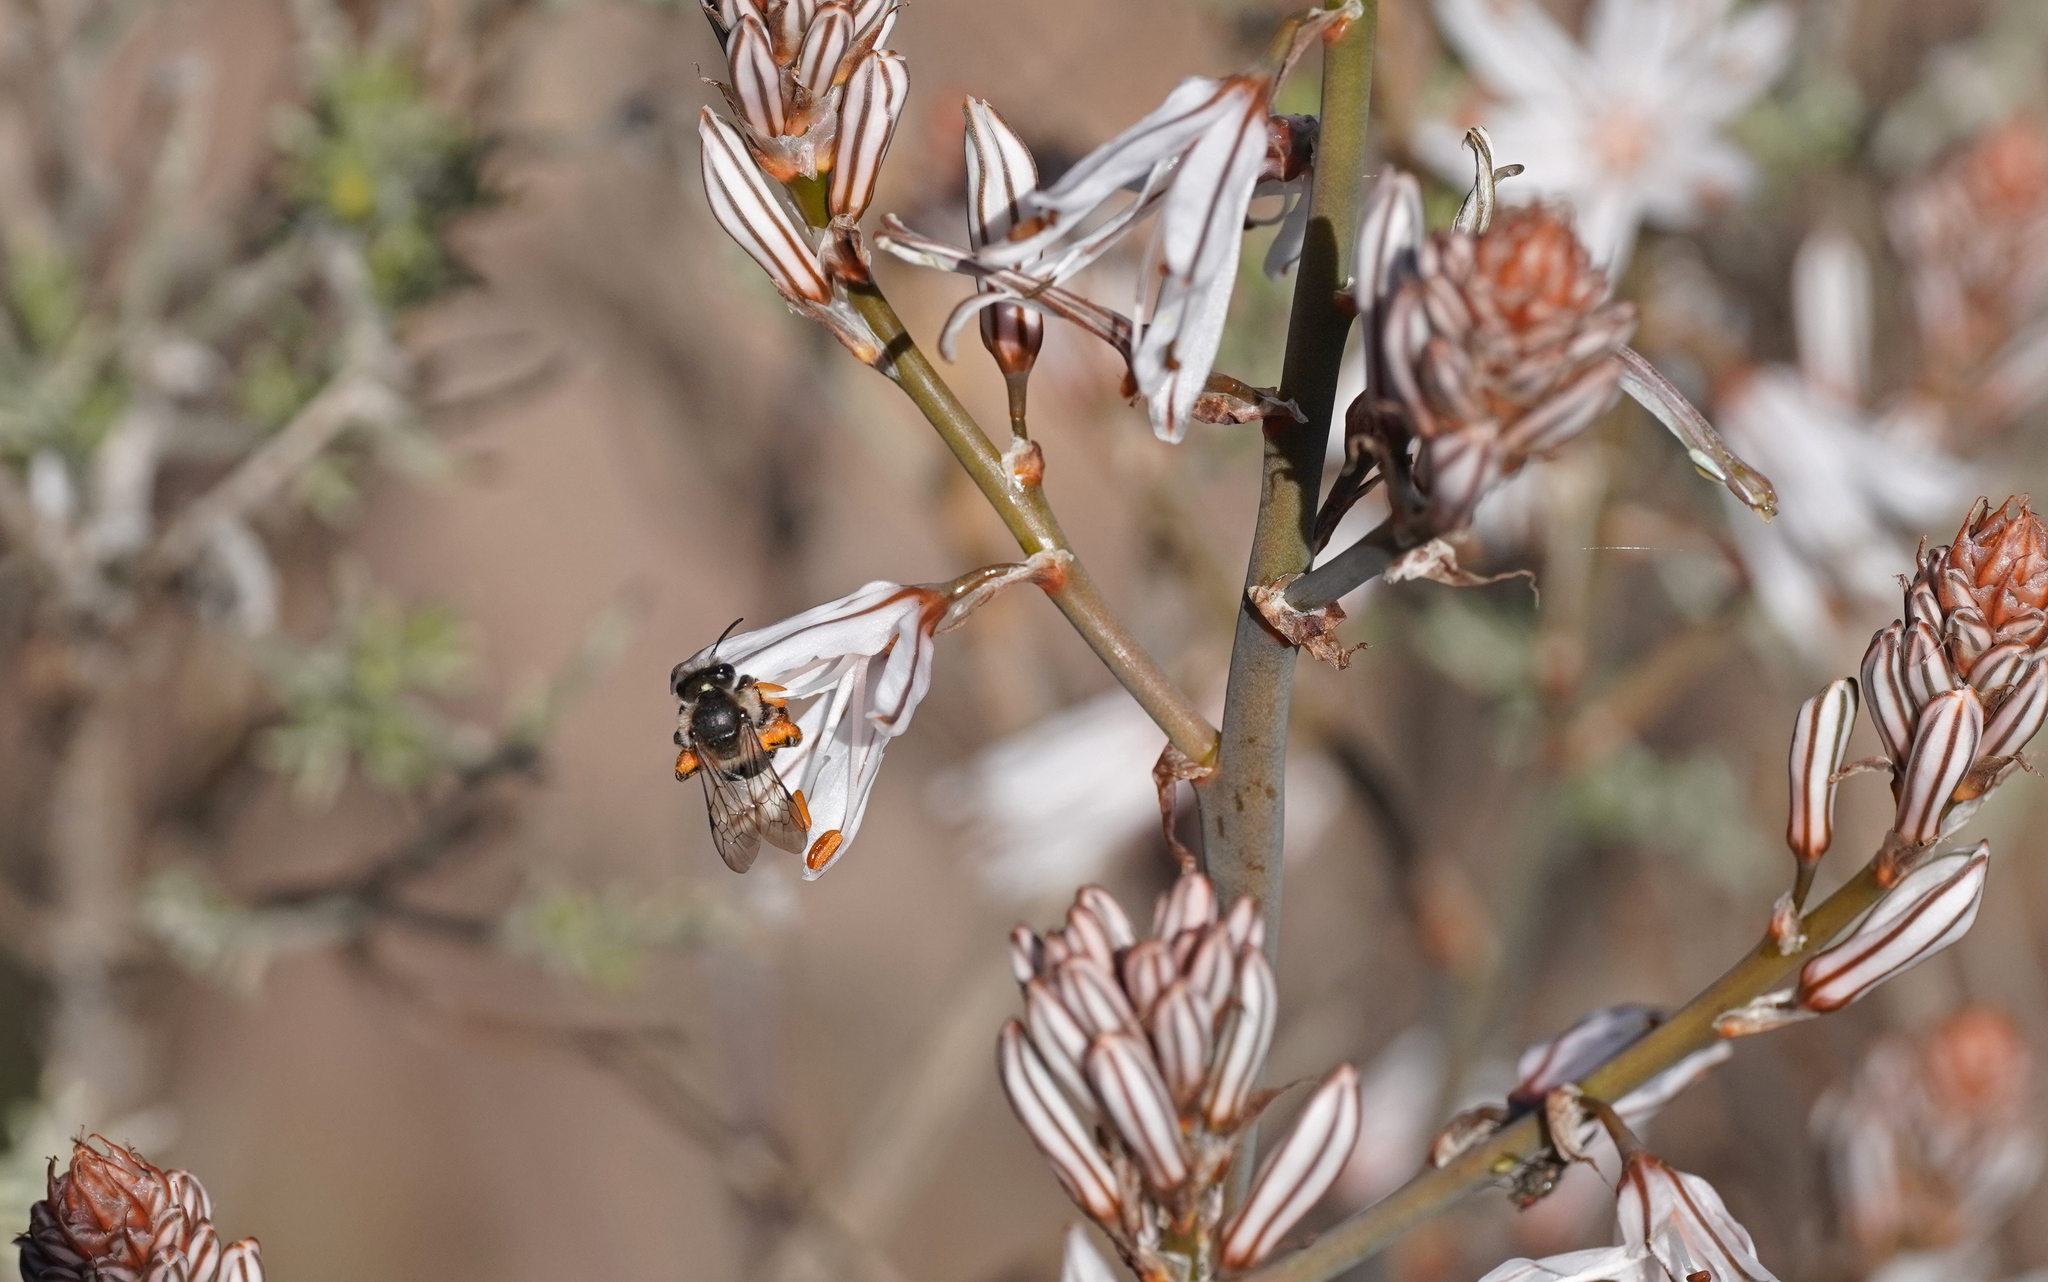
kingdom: Animalia
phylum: Arthropoda
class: Insecta
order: Hymenoptera
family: Andrenidae
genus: Andrena
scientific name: Andrena vulcana
